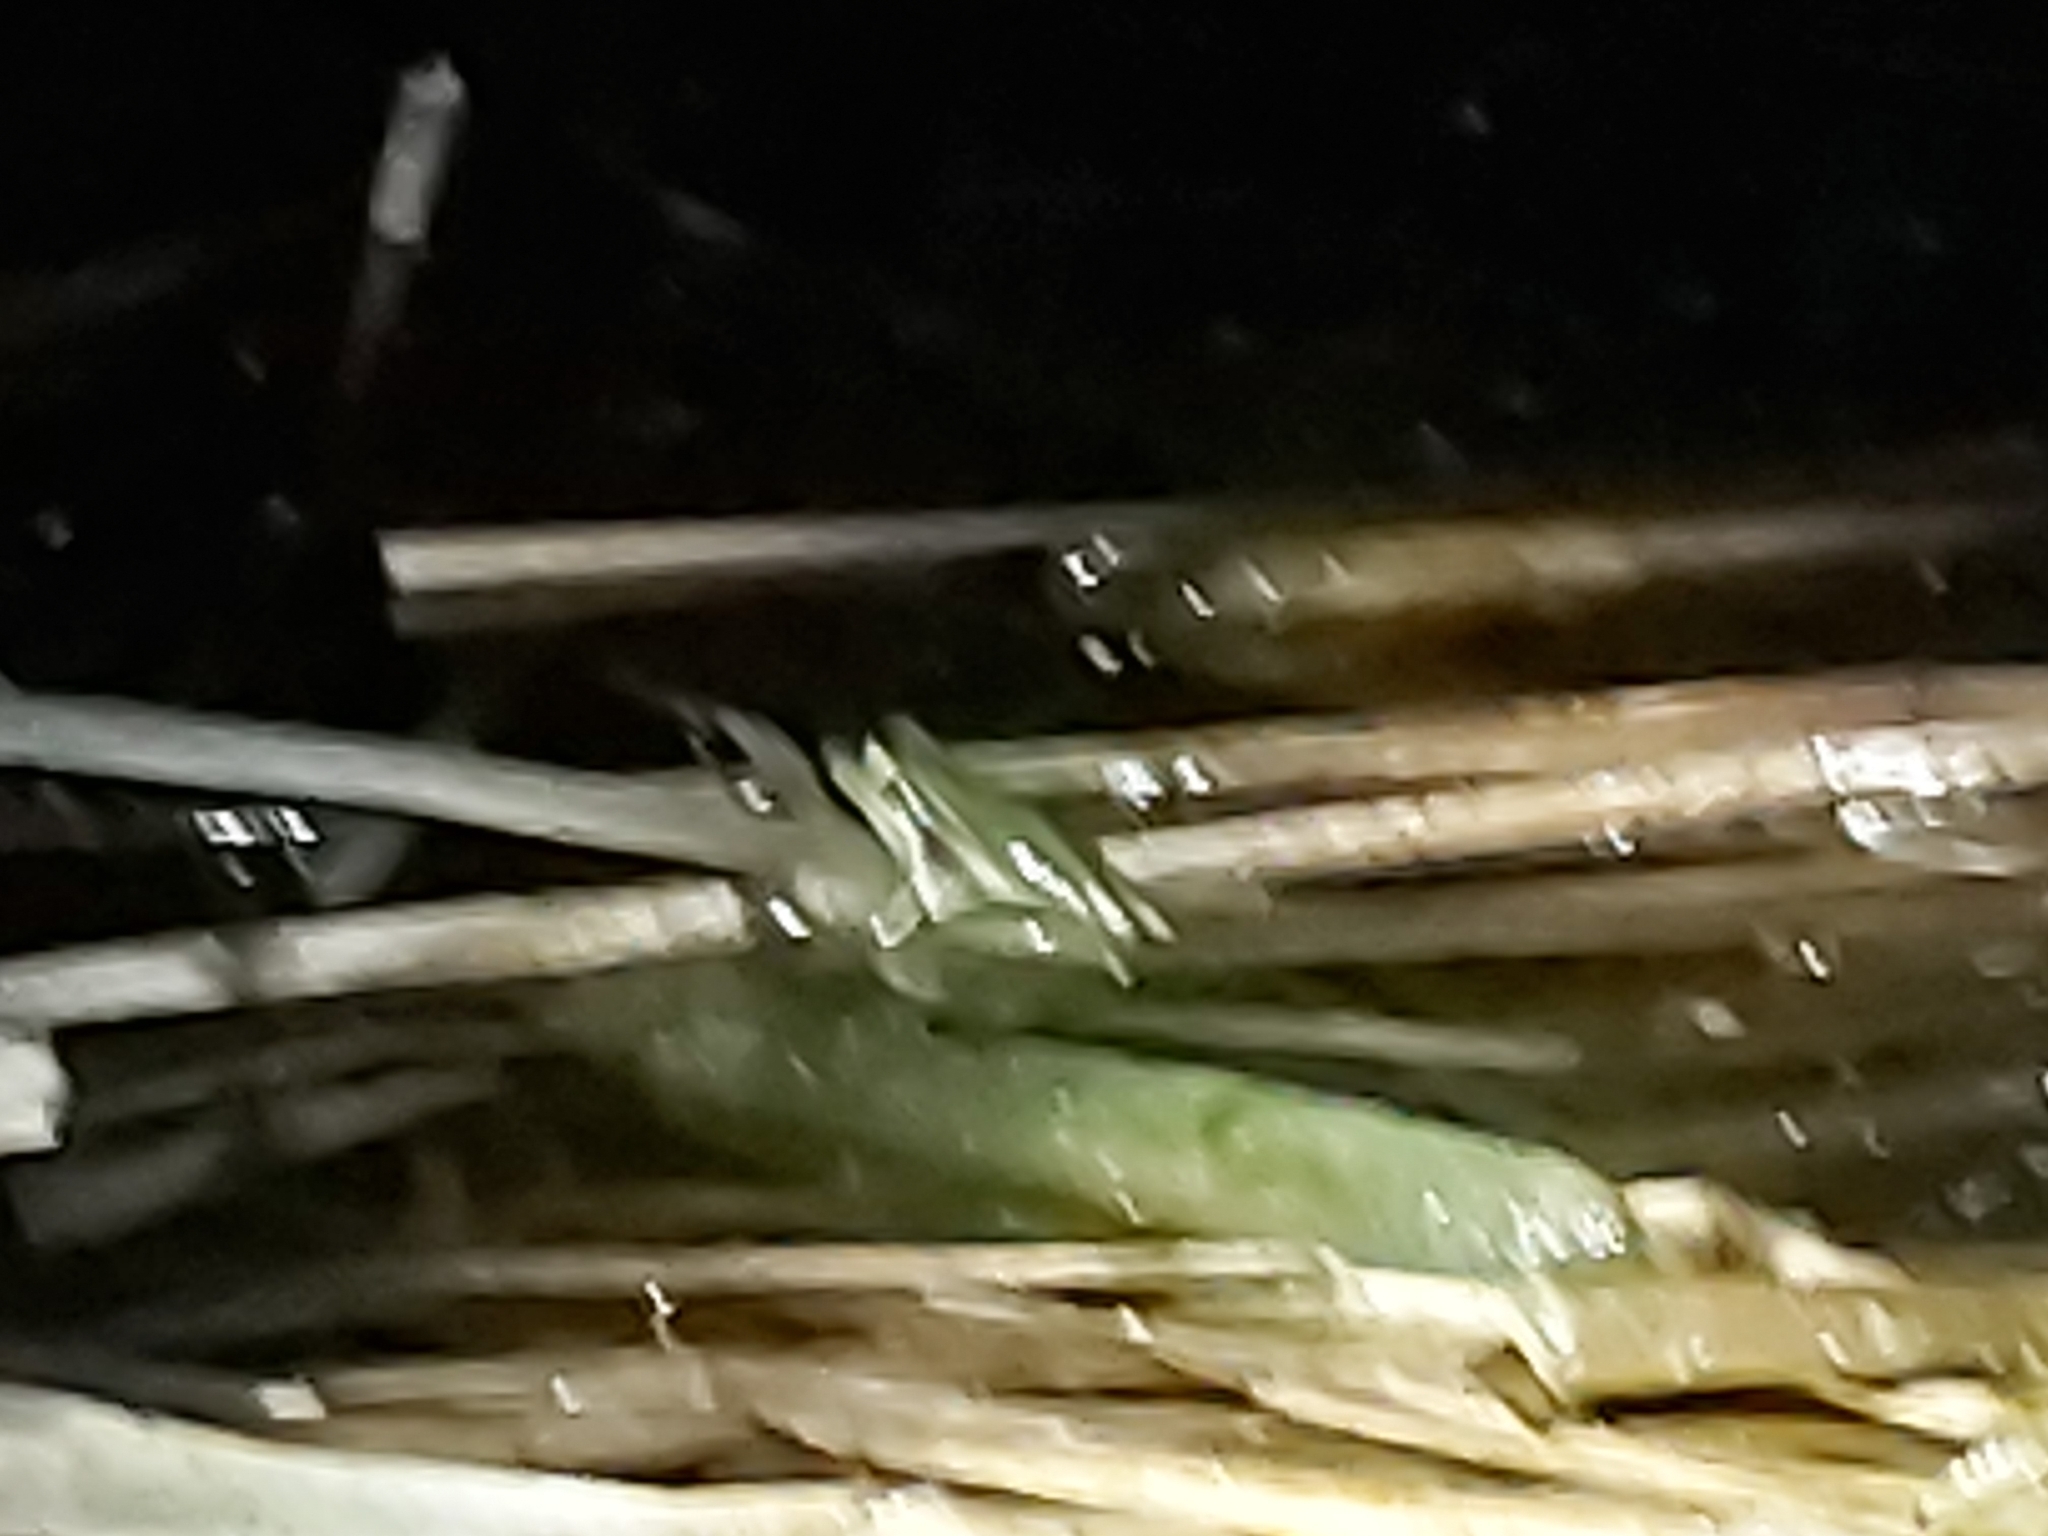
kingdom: Animalia
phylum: Chordata
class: Amphibia
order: Anura
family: Pelodryadidae
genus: Ranoidea
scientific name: Ranoidea aurea
